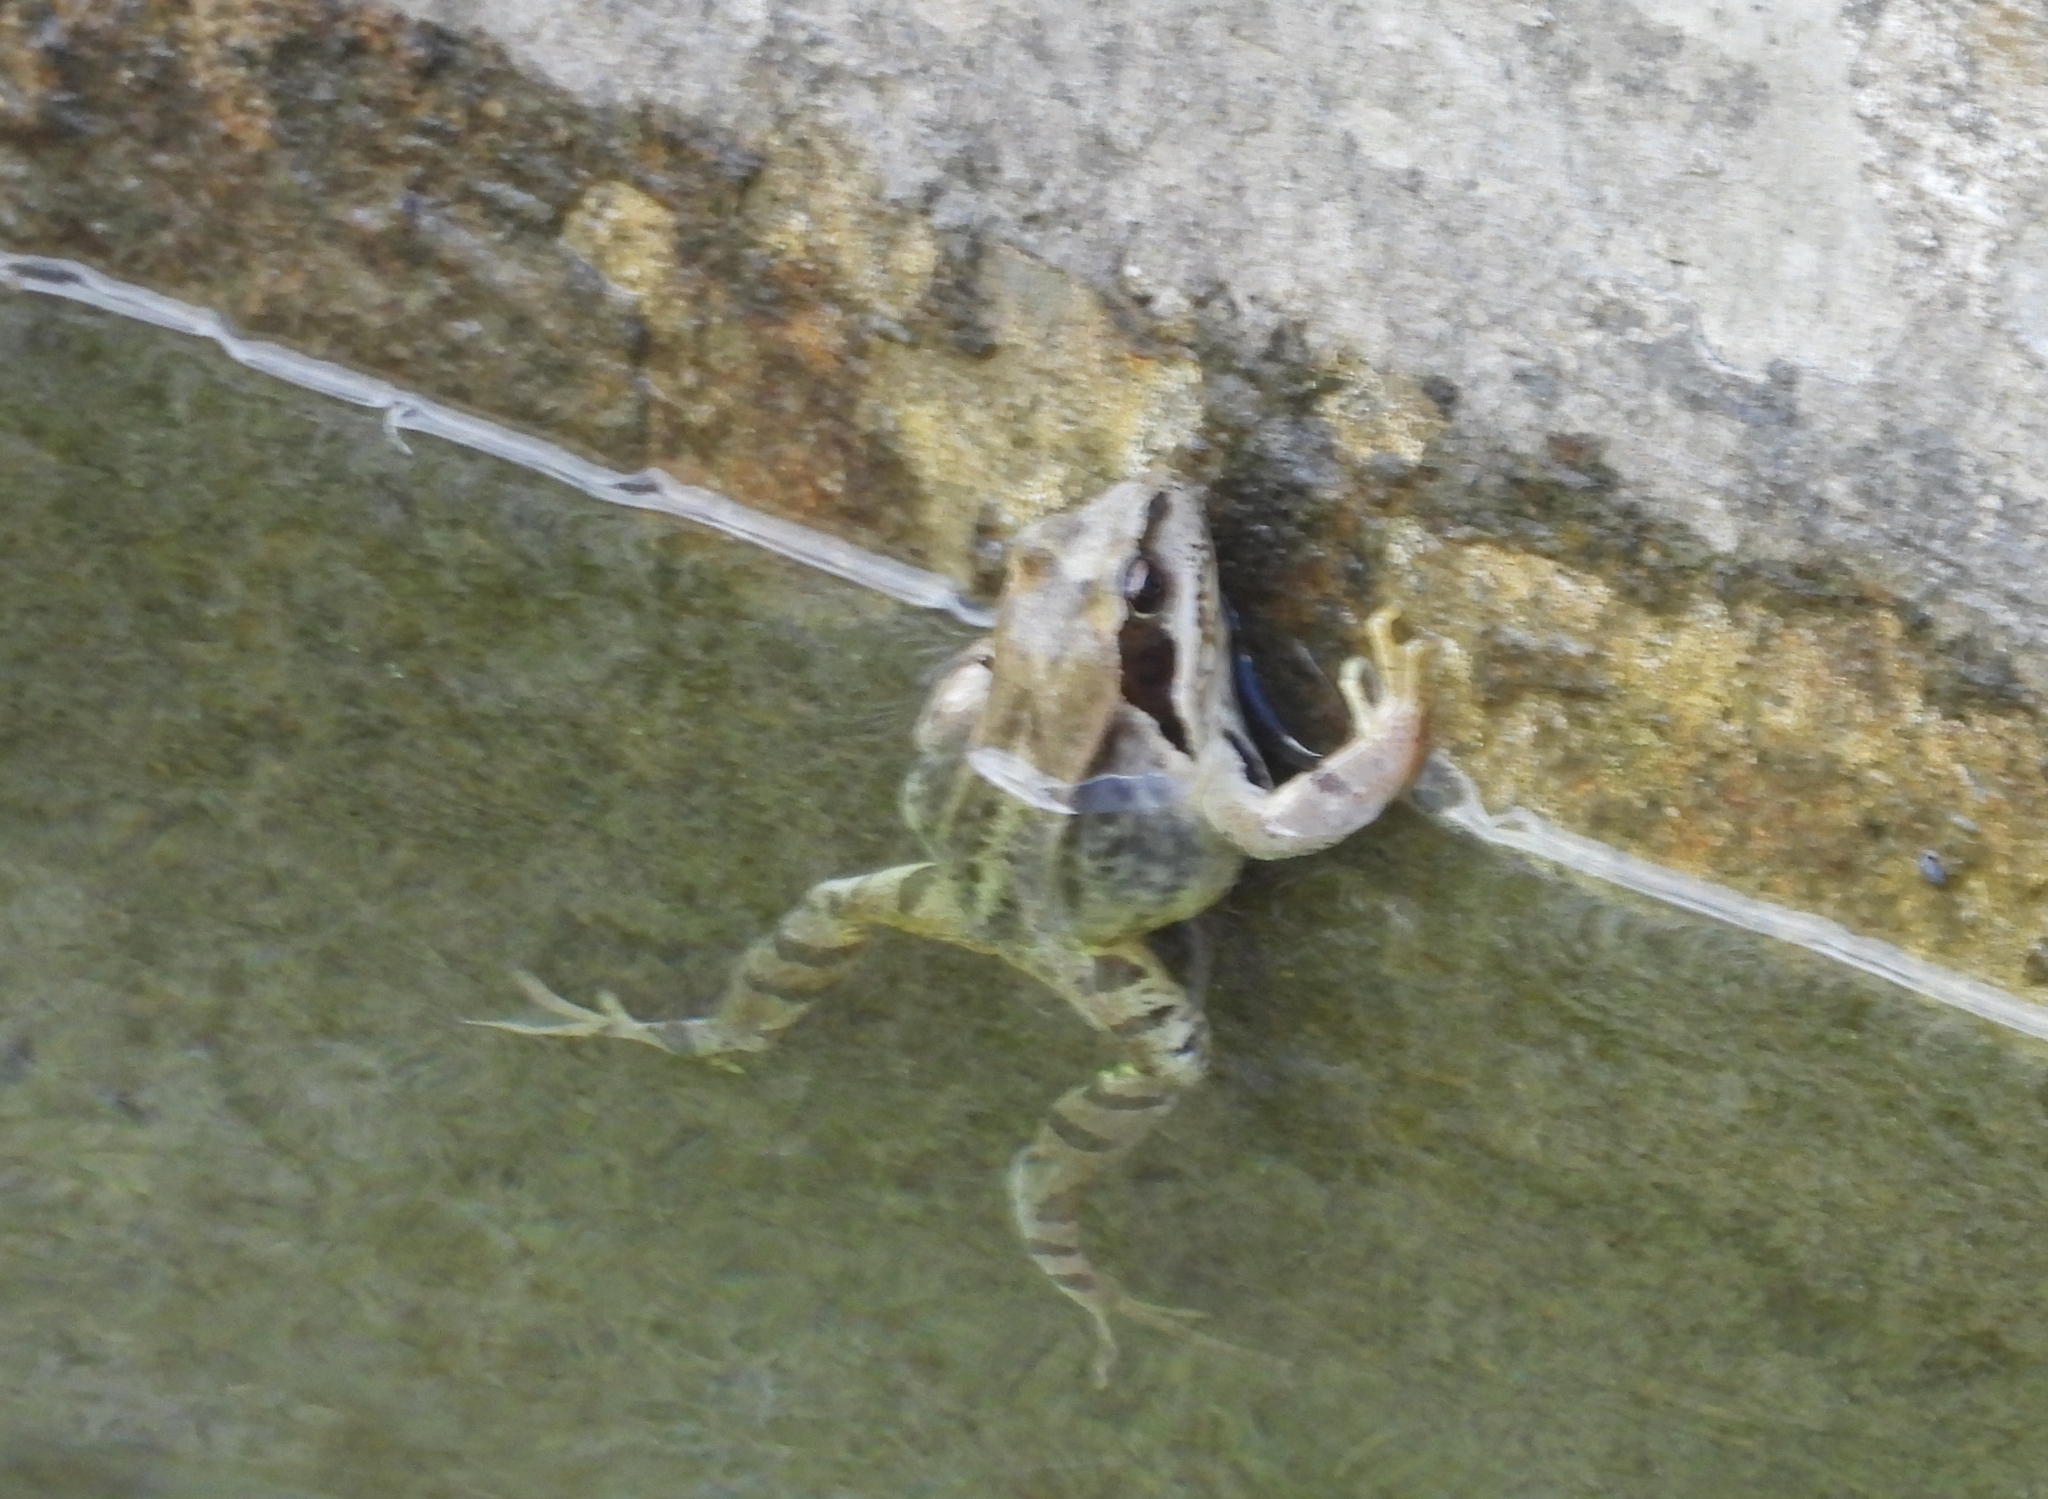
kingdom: Animalia
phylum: Chordata
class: Amphibia
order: Anura
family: Ranidae
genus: Rana
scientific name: Rana temporaria
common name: Common frog
